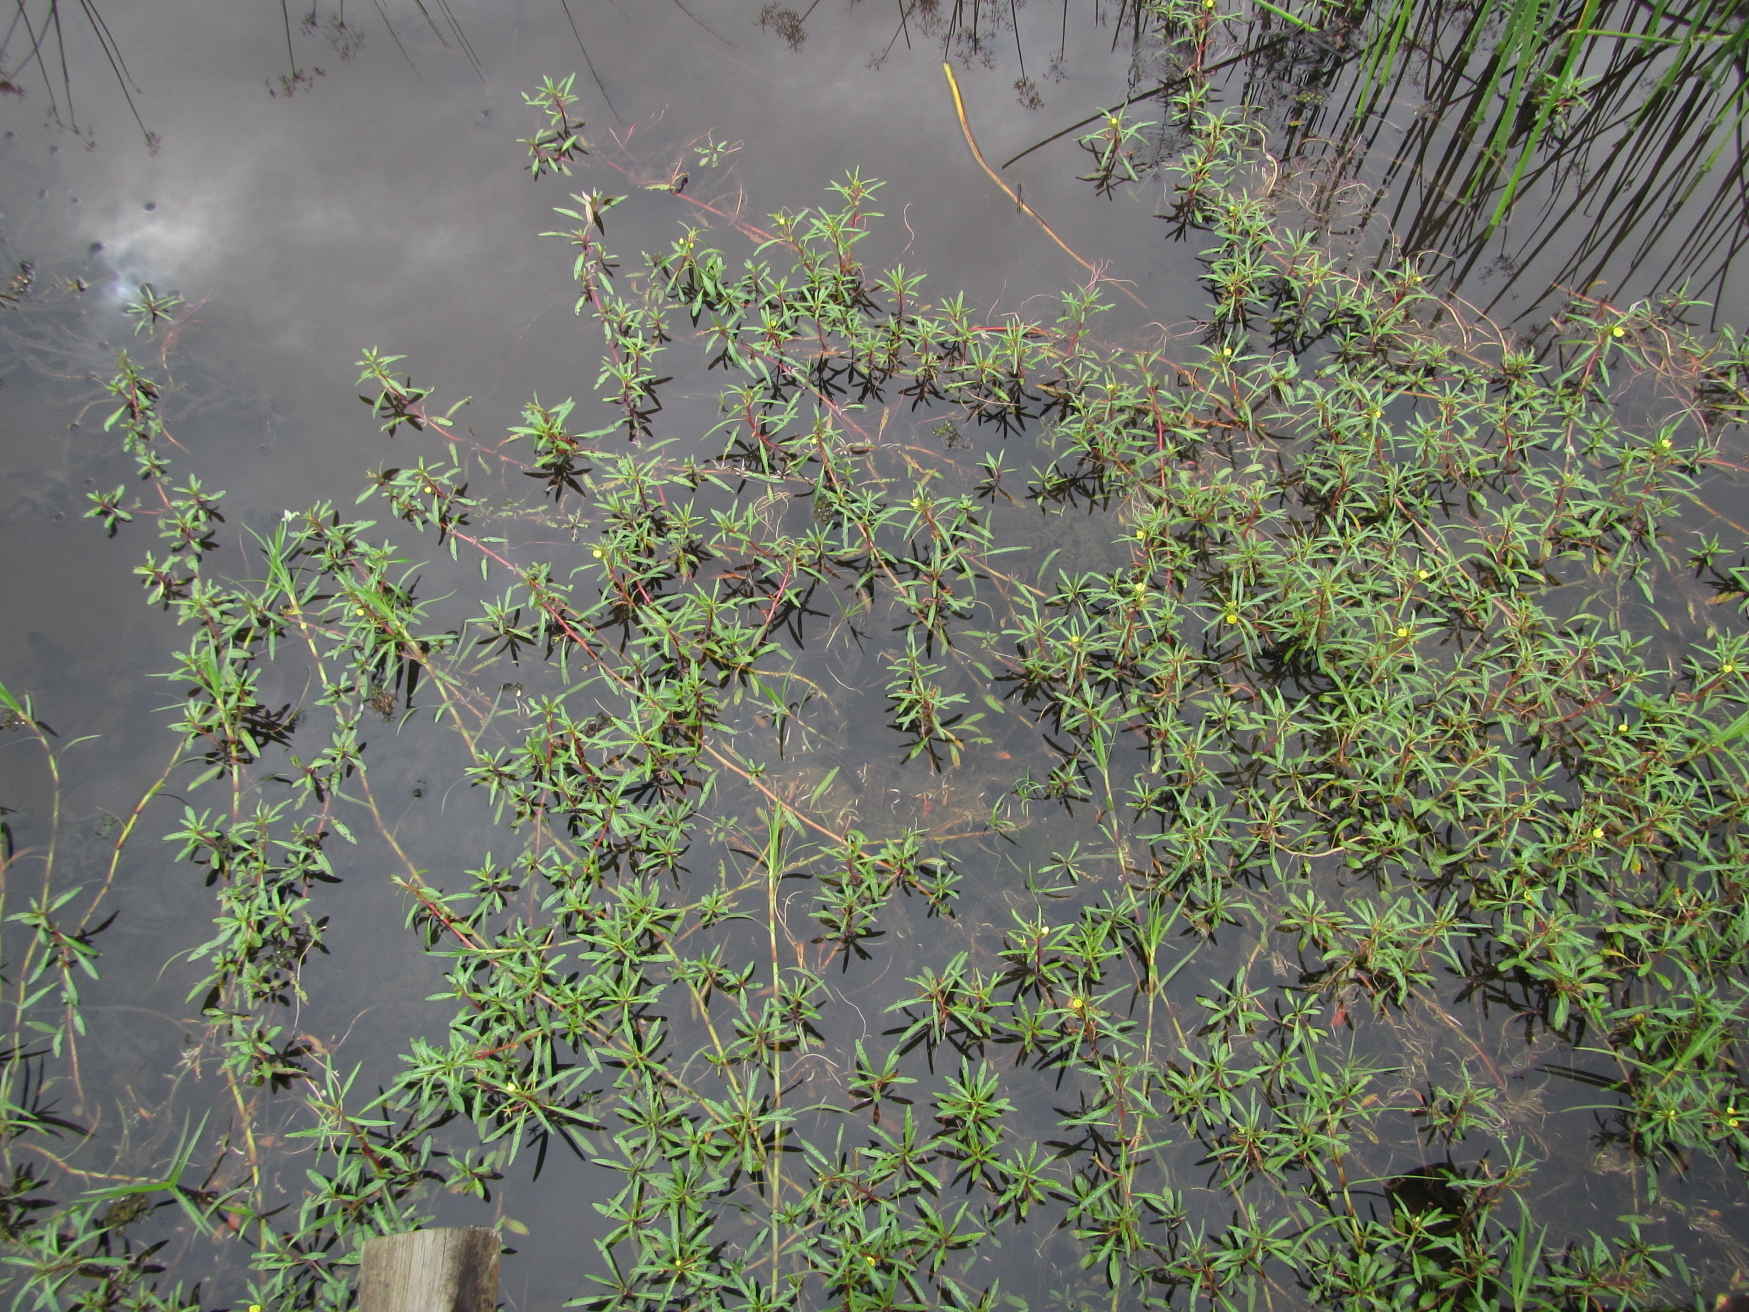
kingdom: Plantae
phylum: Tracheophyta
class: Magnoliopsida
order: Myrtales
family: Onagraceae
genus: Ludwigia
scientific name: Ludwigia adscendens
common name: Creeping water primrose
